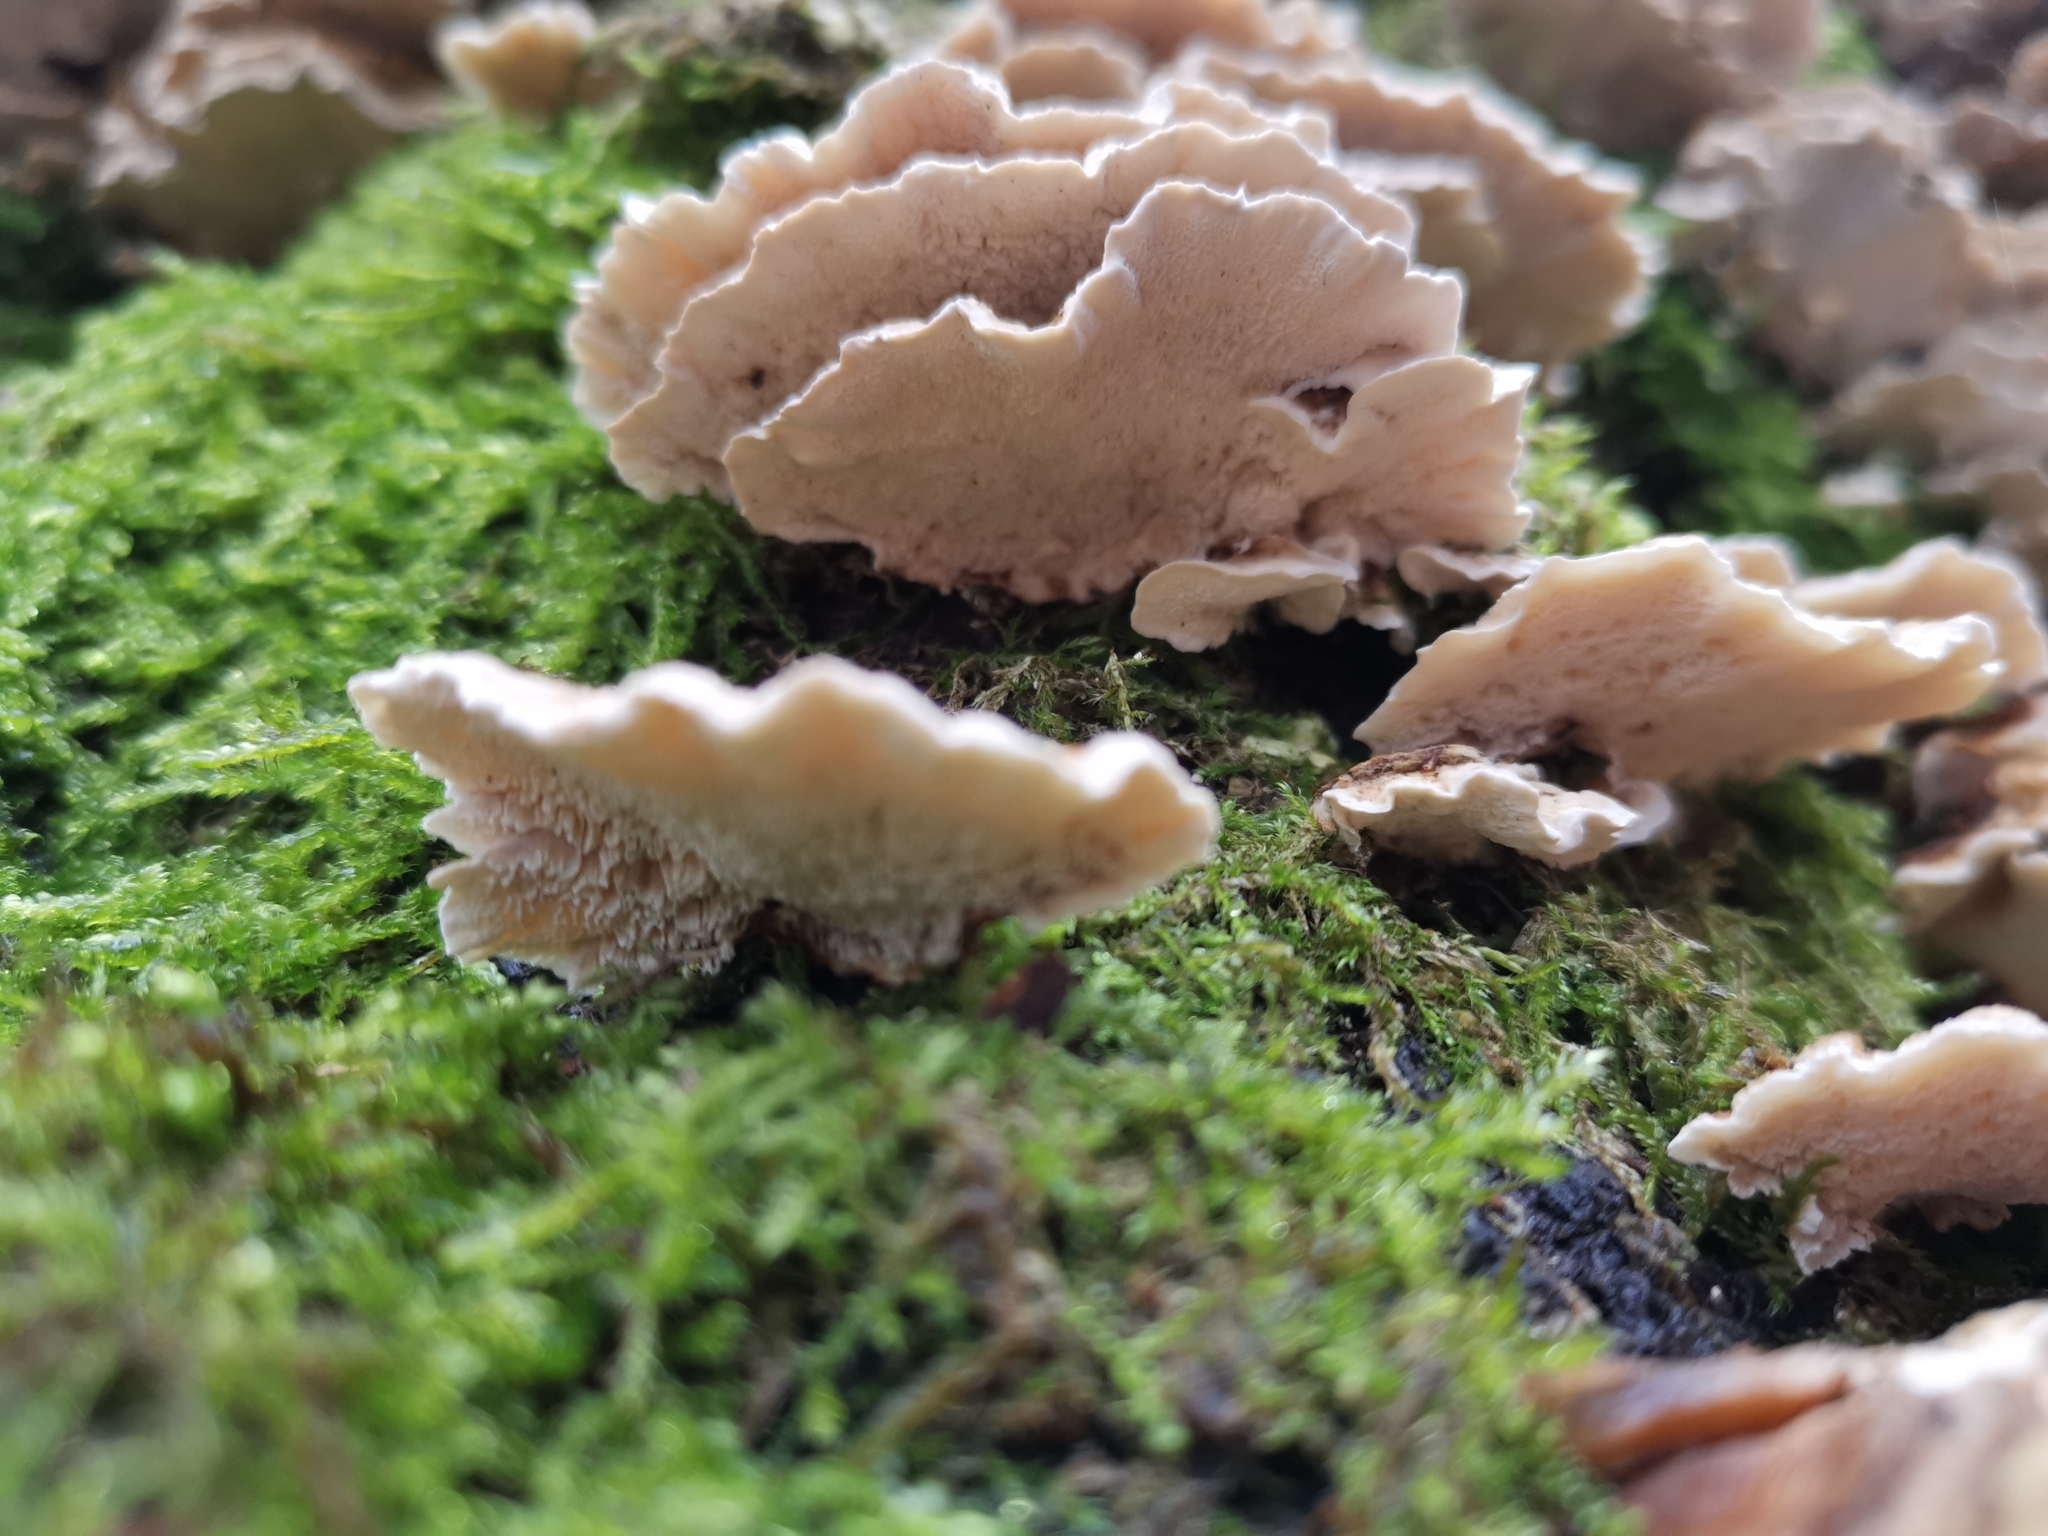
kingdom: Fungi
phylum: Basidiomycota
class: Agaricomycetes
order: Polyporales
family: Polyporaceae
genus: Trametes
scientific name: Trametes ochracea
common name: Ochre bracket
